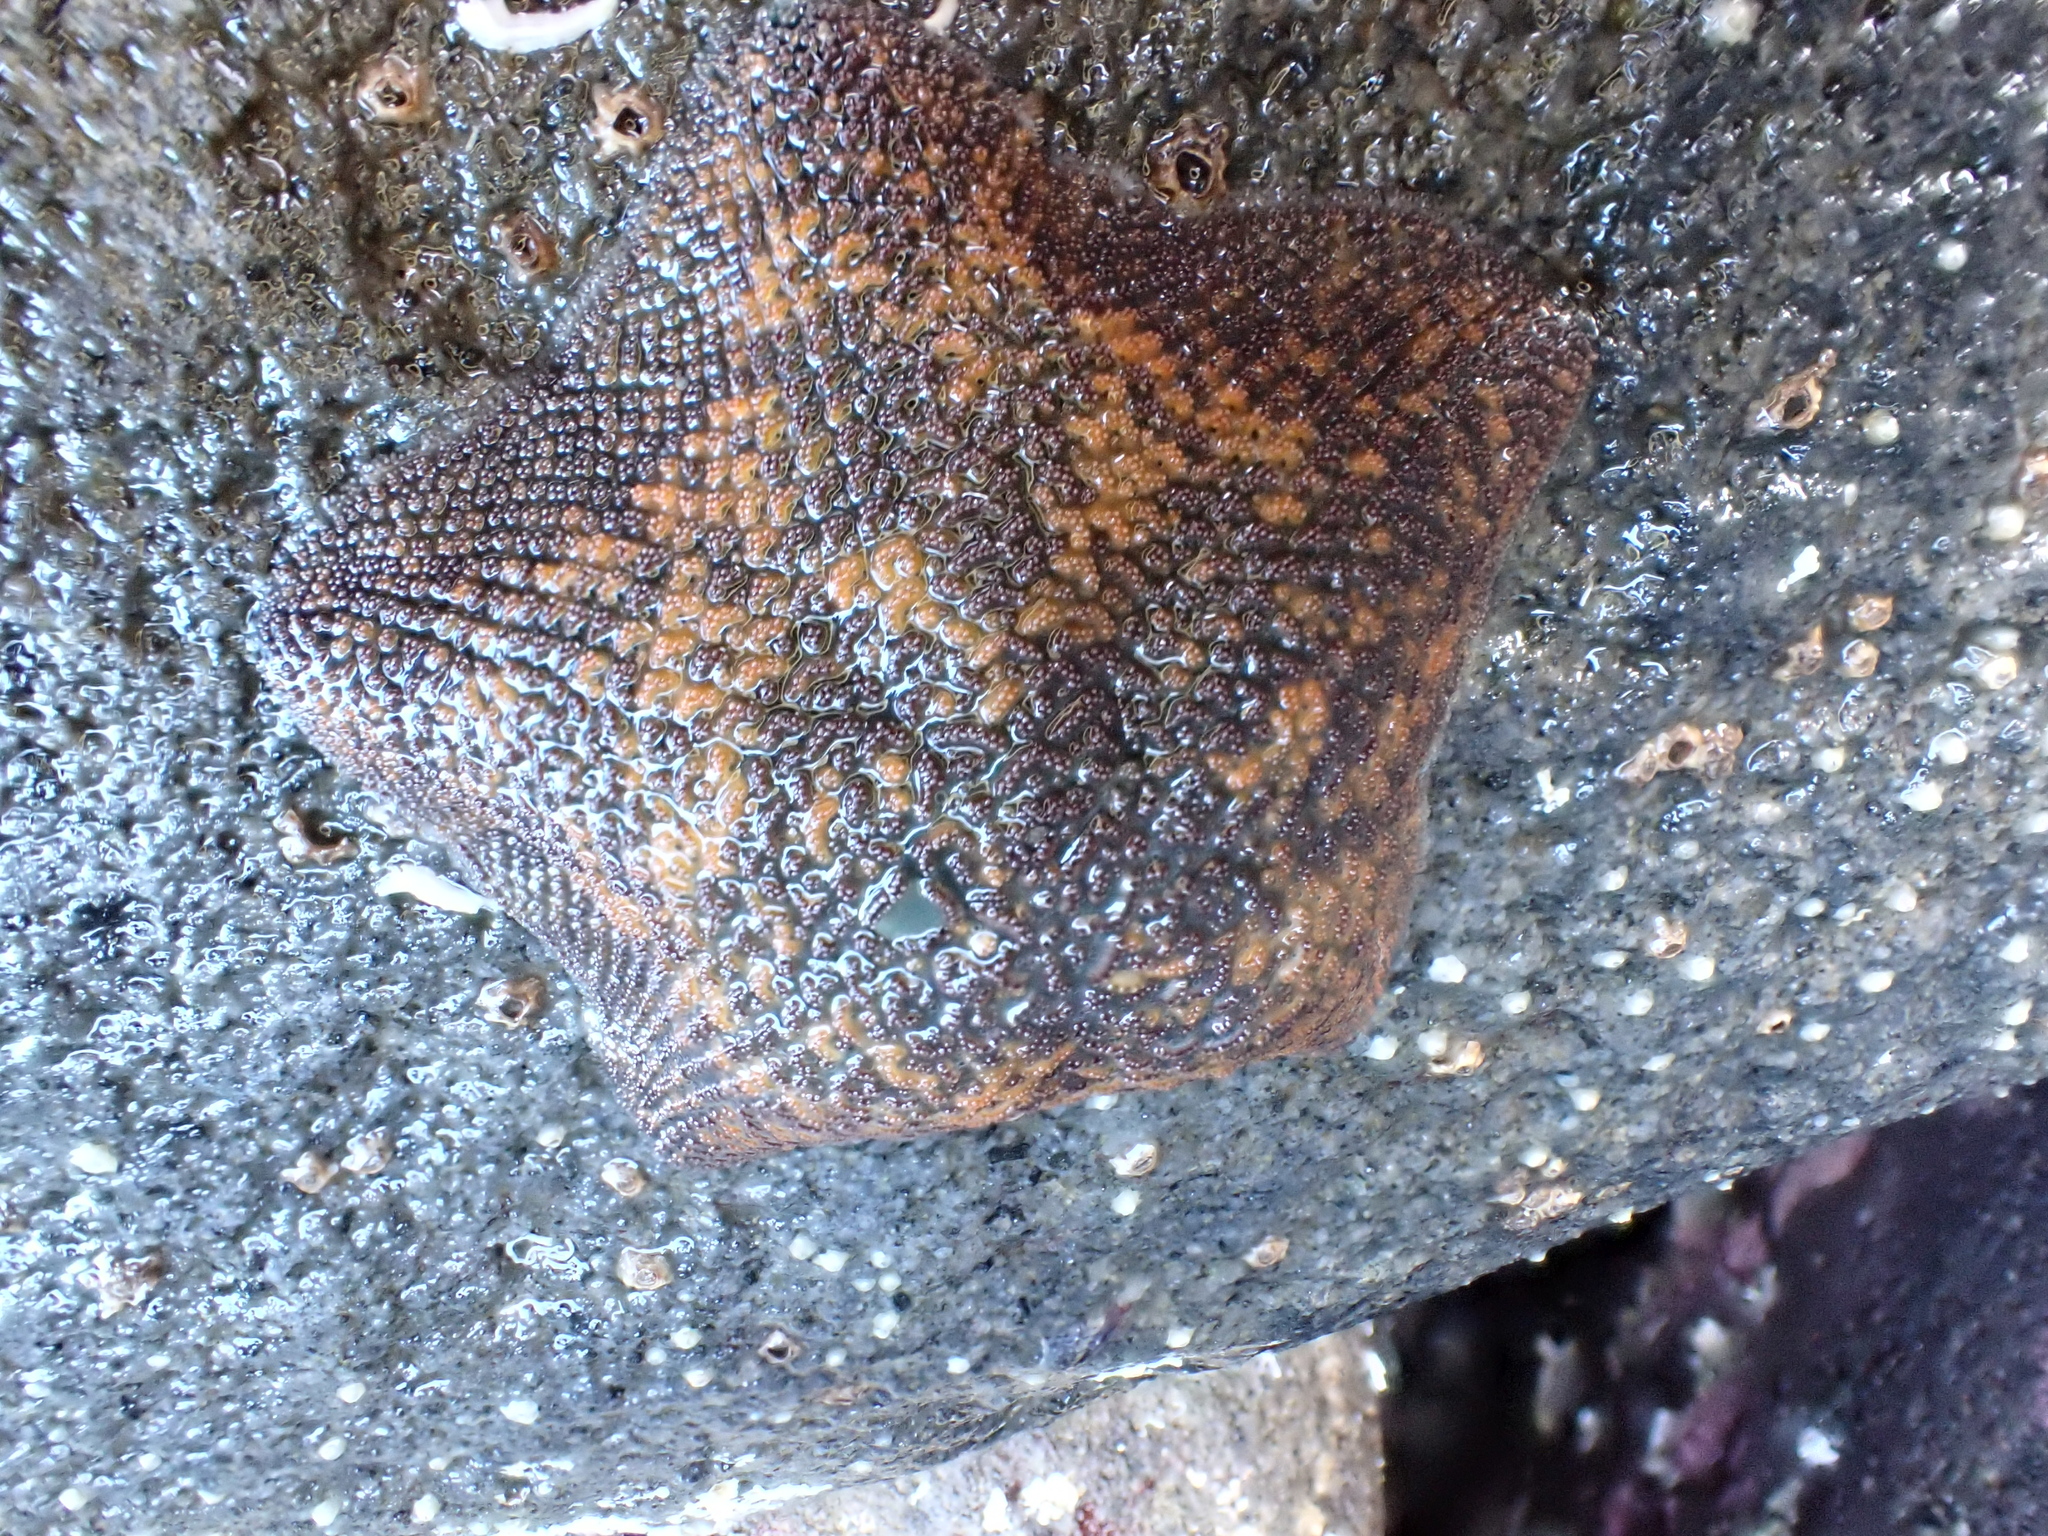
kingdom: Animalia
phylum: Echinodermata
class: Asteroidea
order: Valvatida
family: Asterinidae
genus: Patiriella
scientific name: Patiriella regularis
